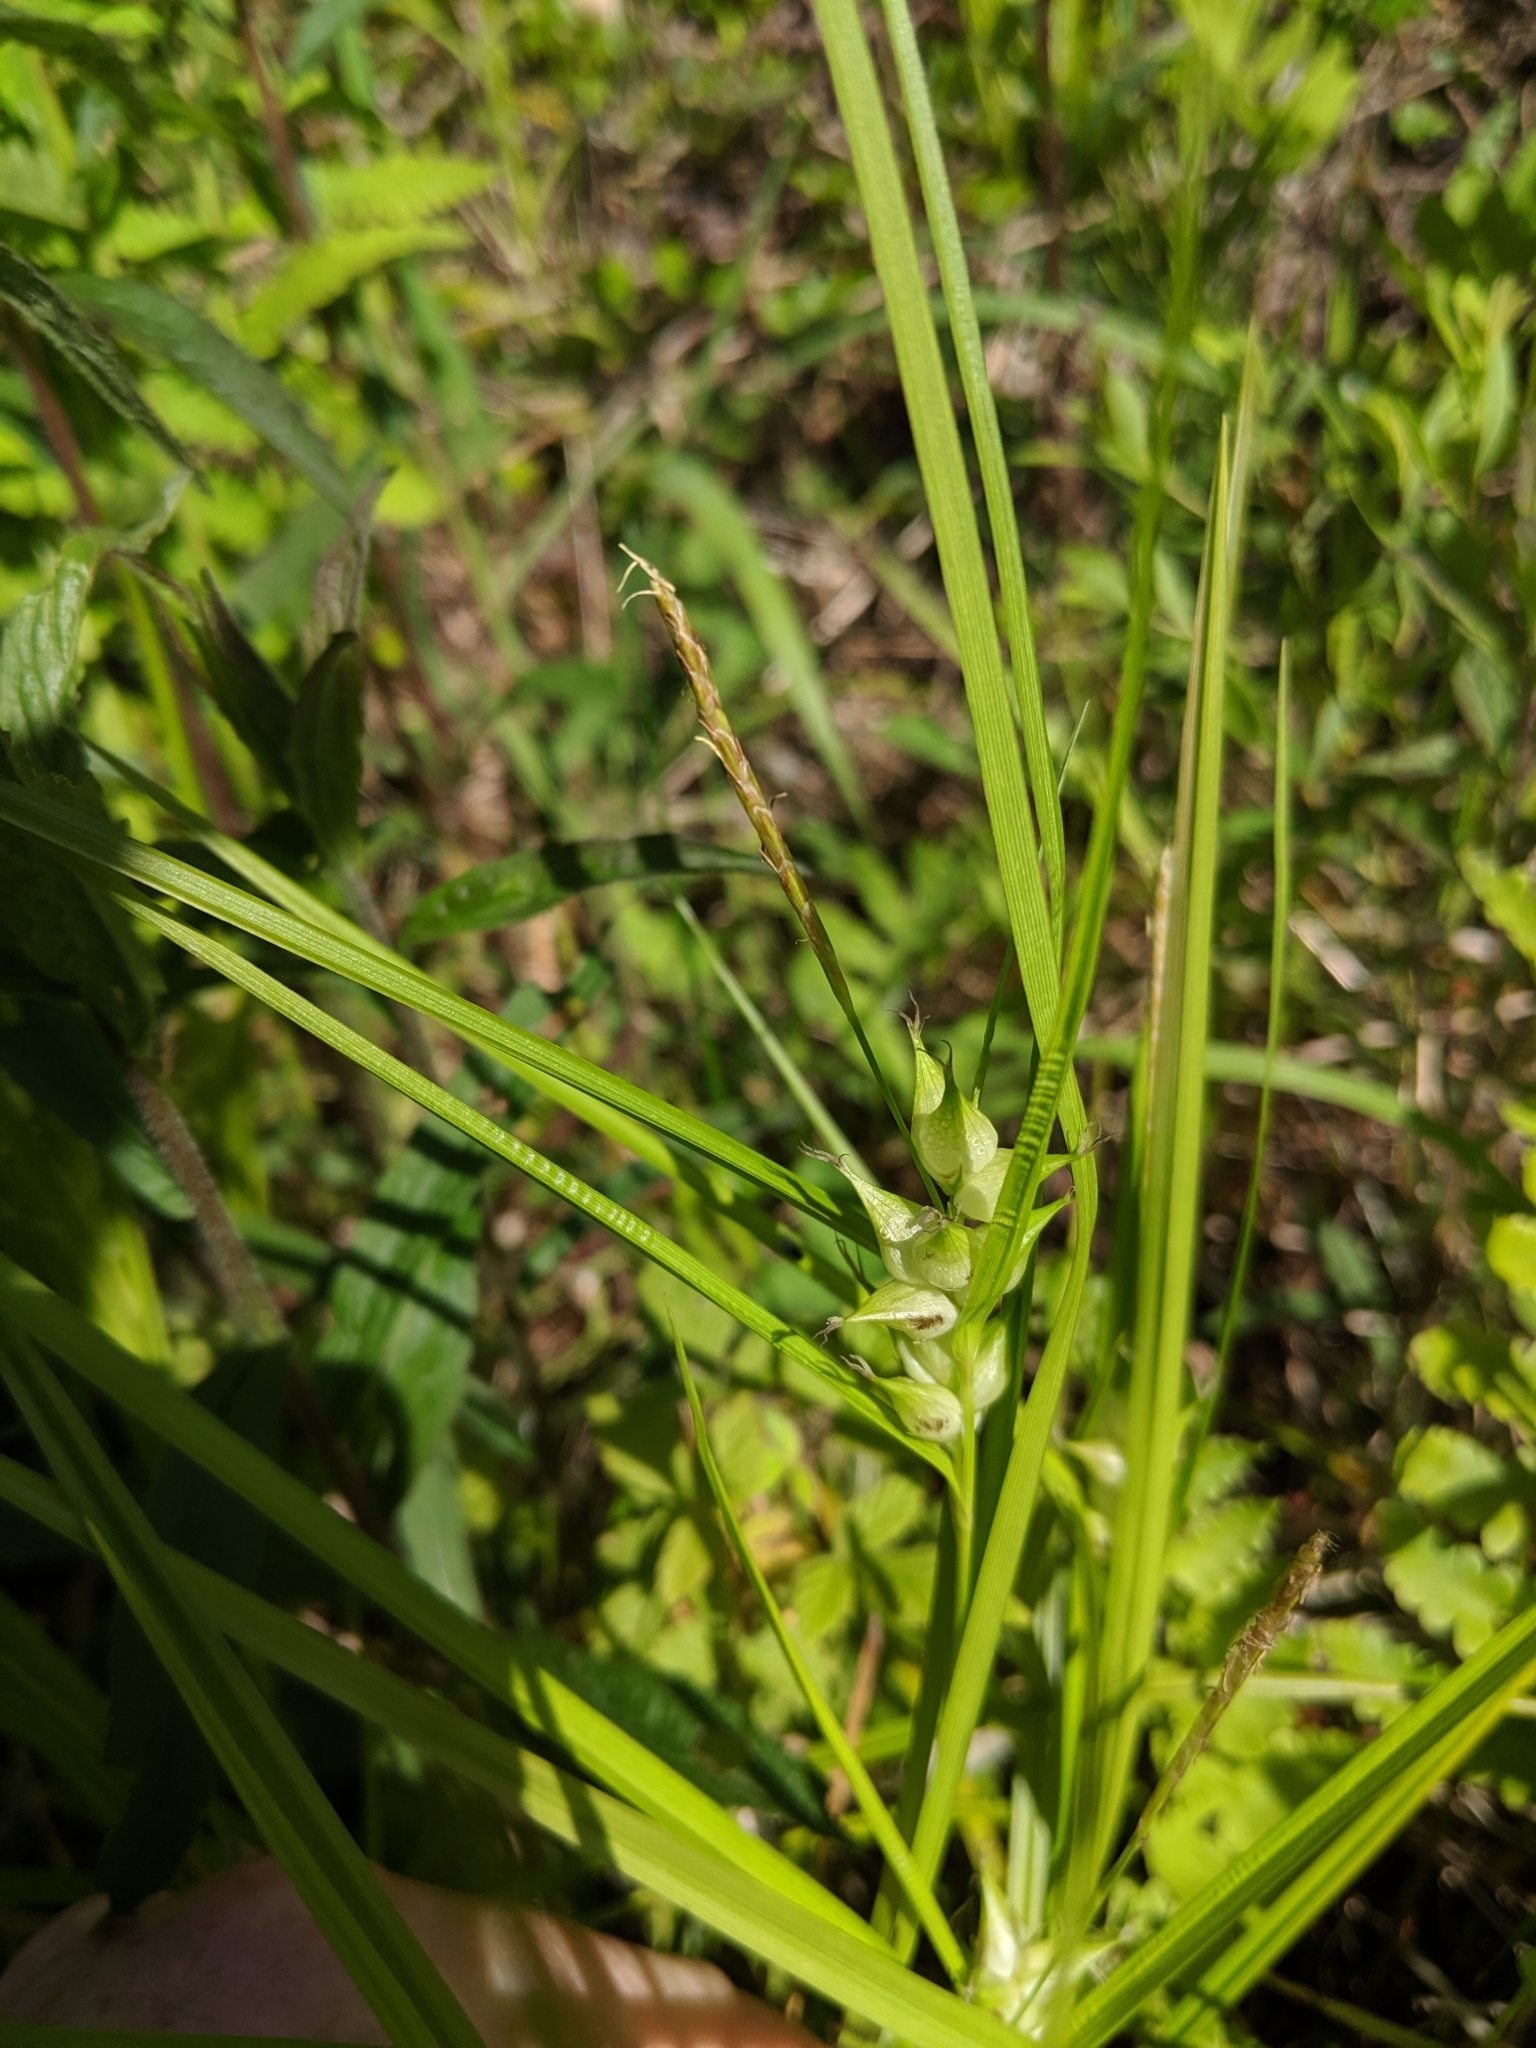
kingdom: Plantae
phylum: Tracheophyta
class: Liliopsida
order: Poales
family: Cyperaceae
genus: Carex
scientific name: Carex intumescens
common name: Greater bladder sedge
